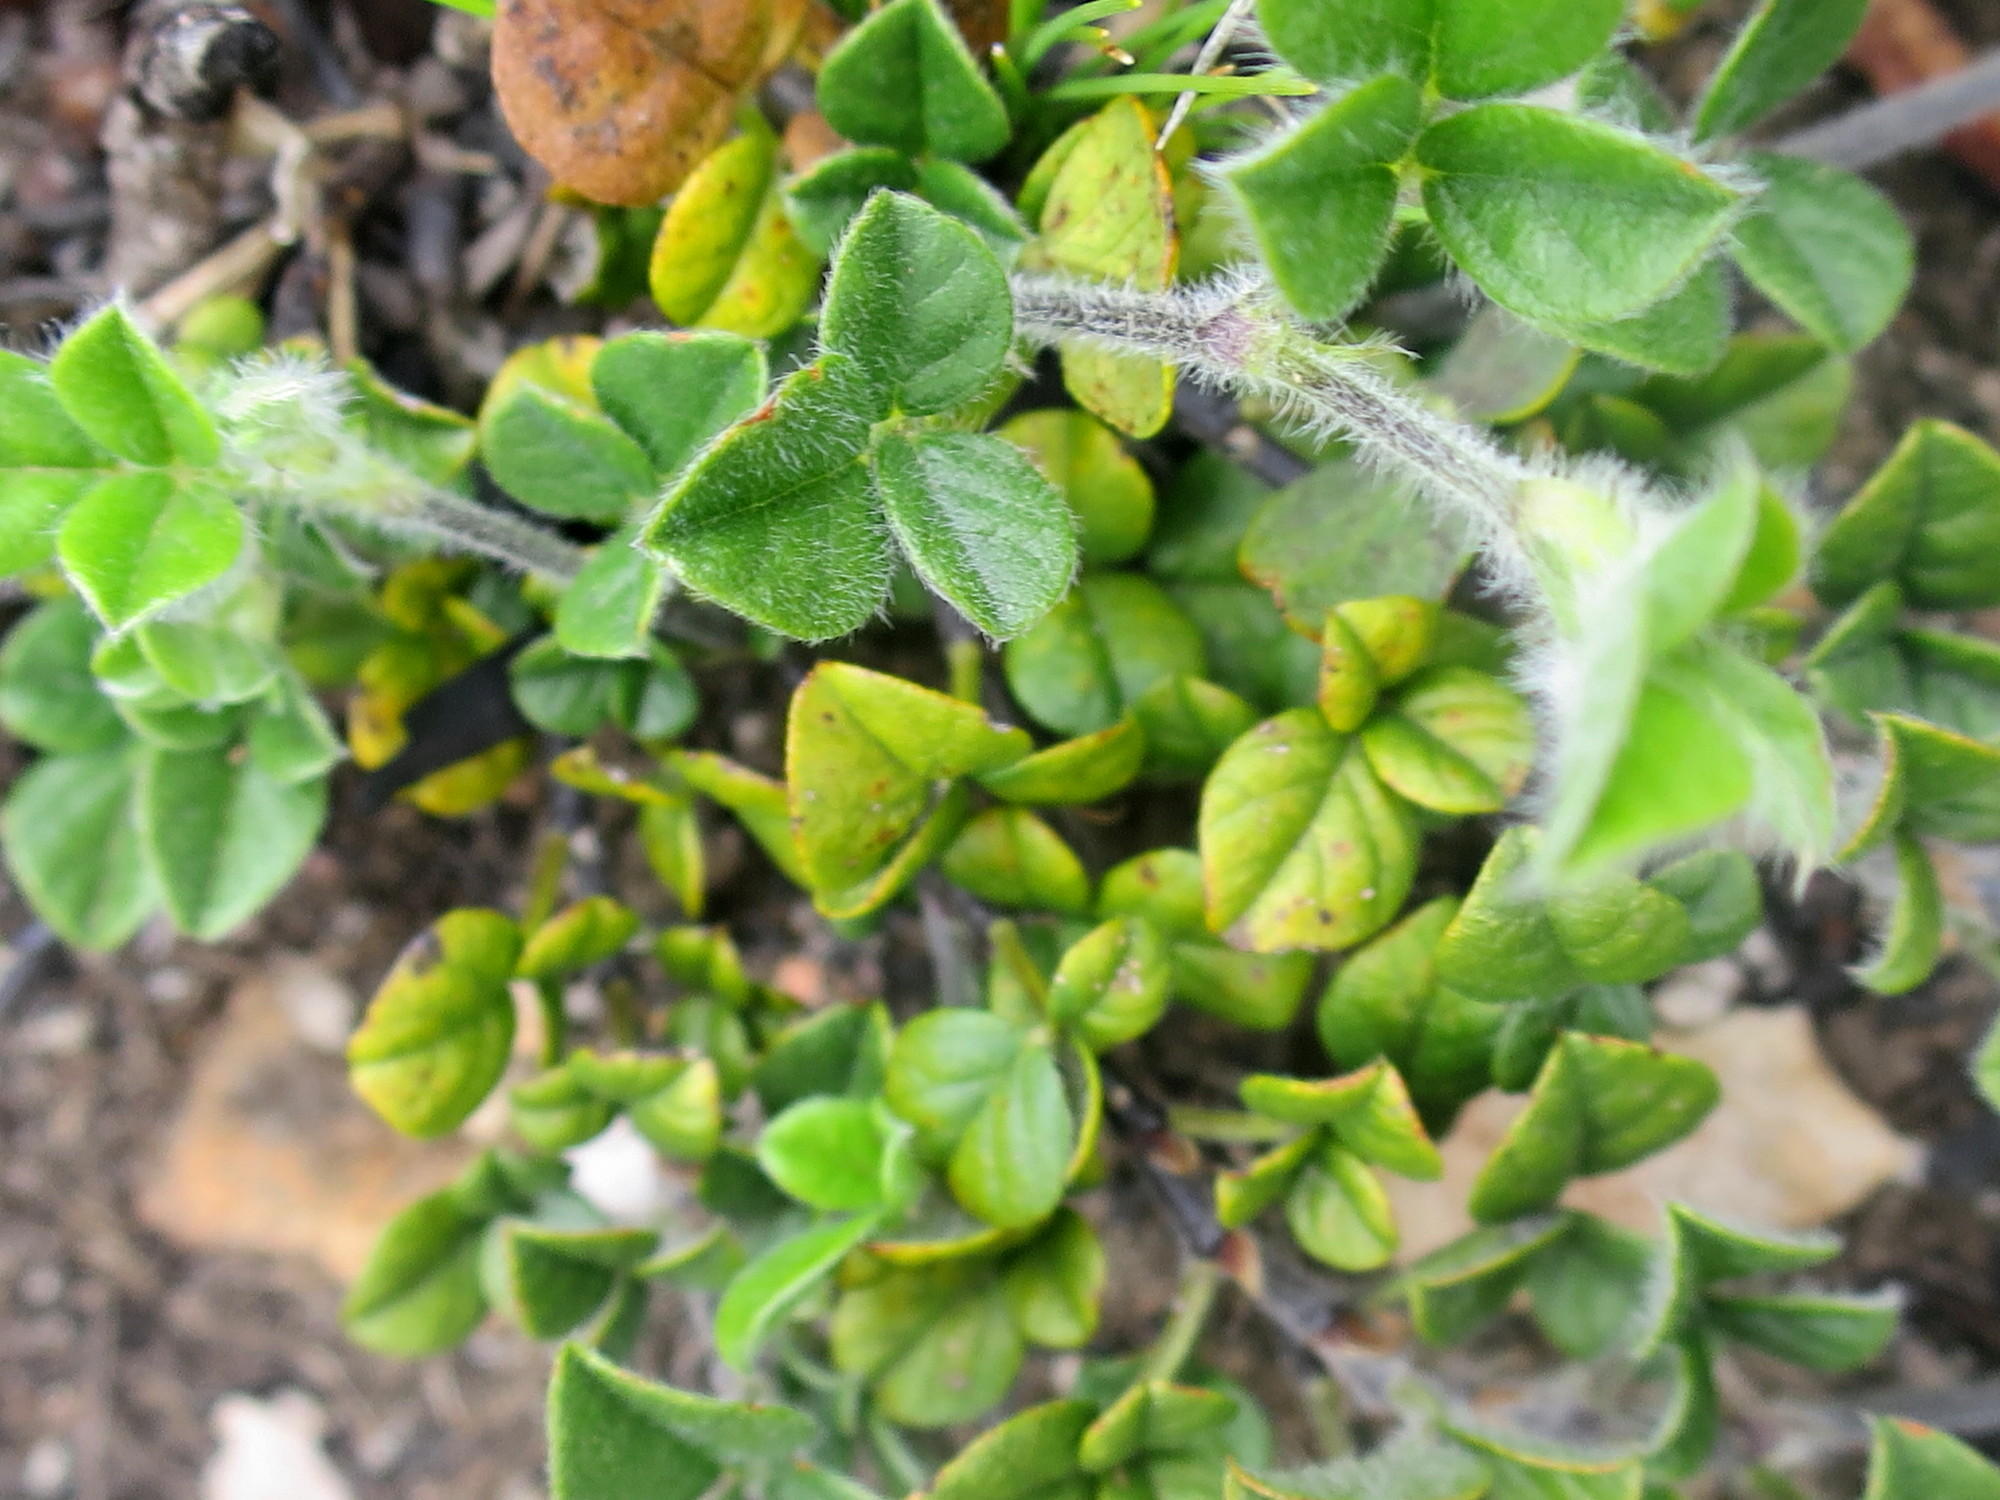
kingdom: Plantae
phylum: Tracheophyta
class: Magnoliopsida
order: Fabales
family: Fabaceae
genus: Psoralea
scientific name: Psoralea swartbergensis
